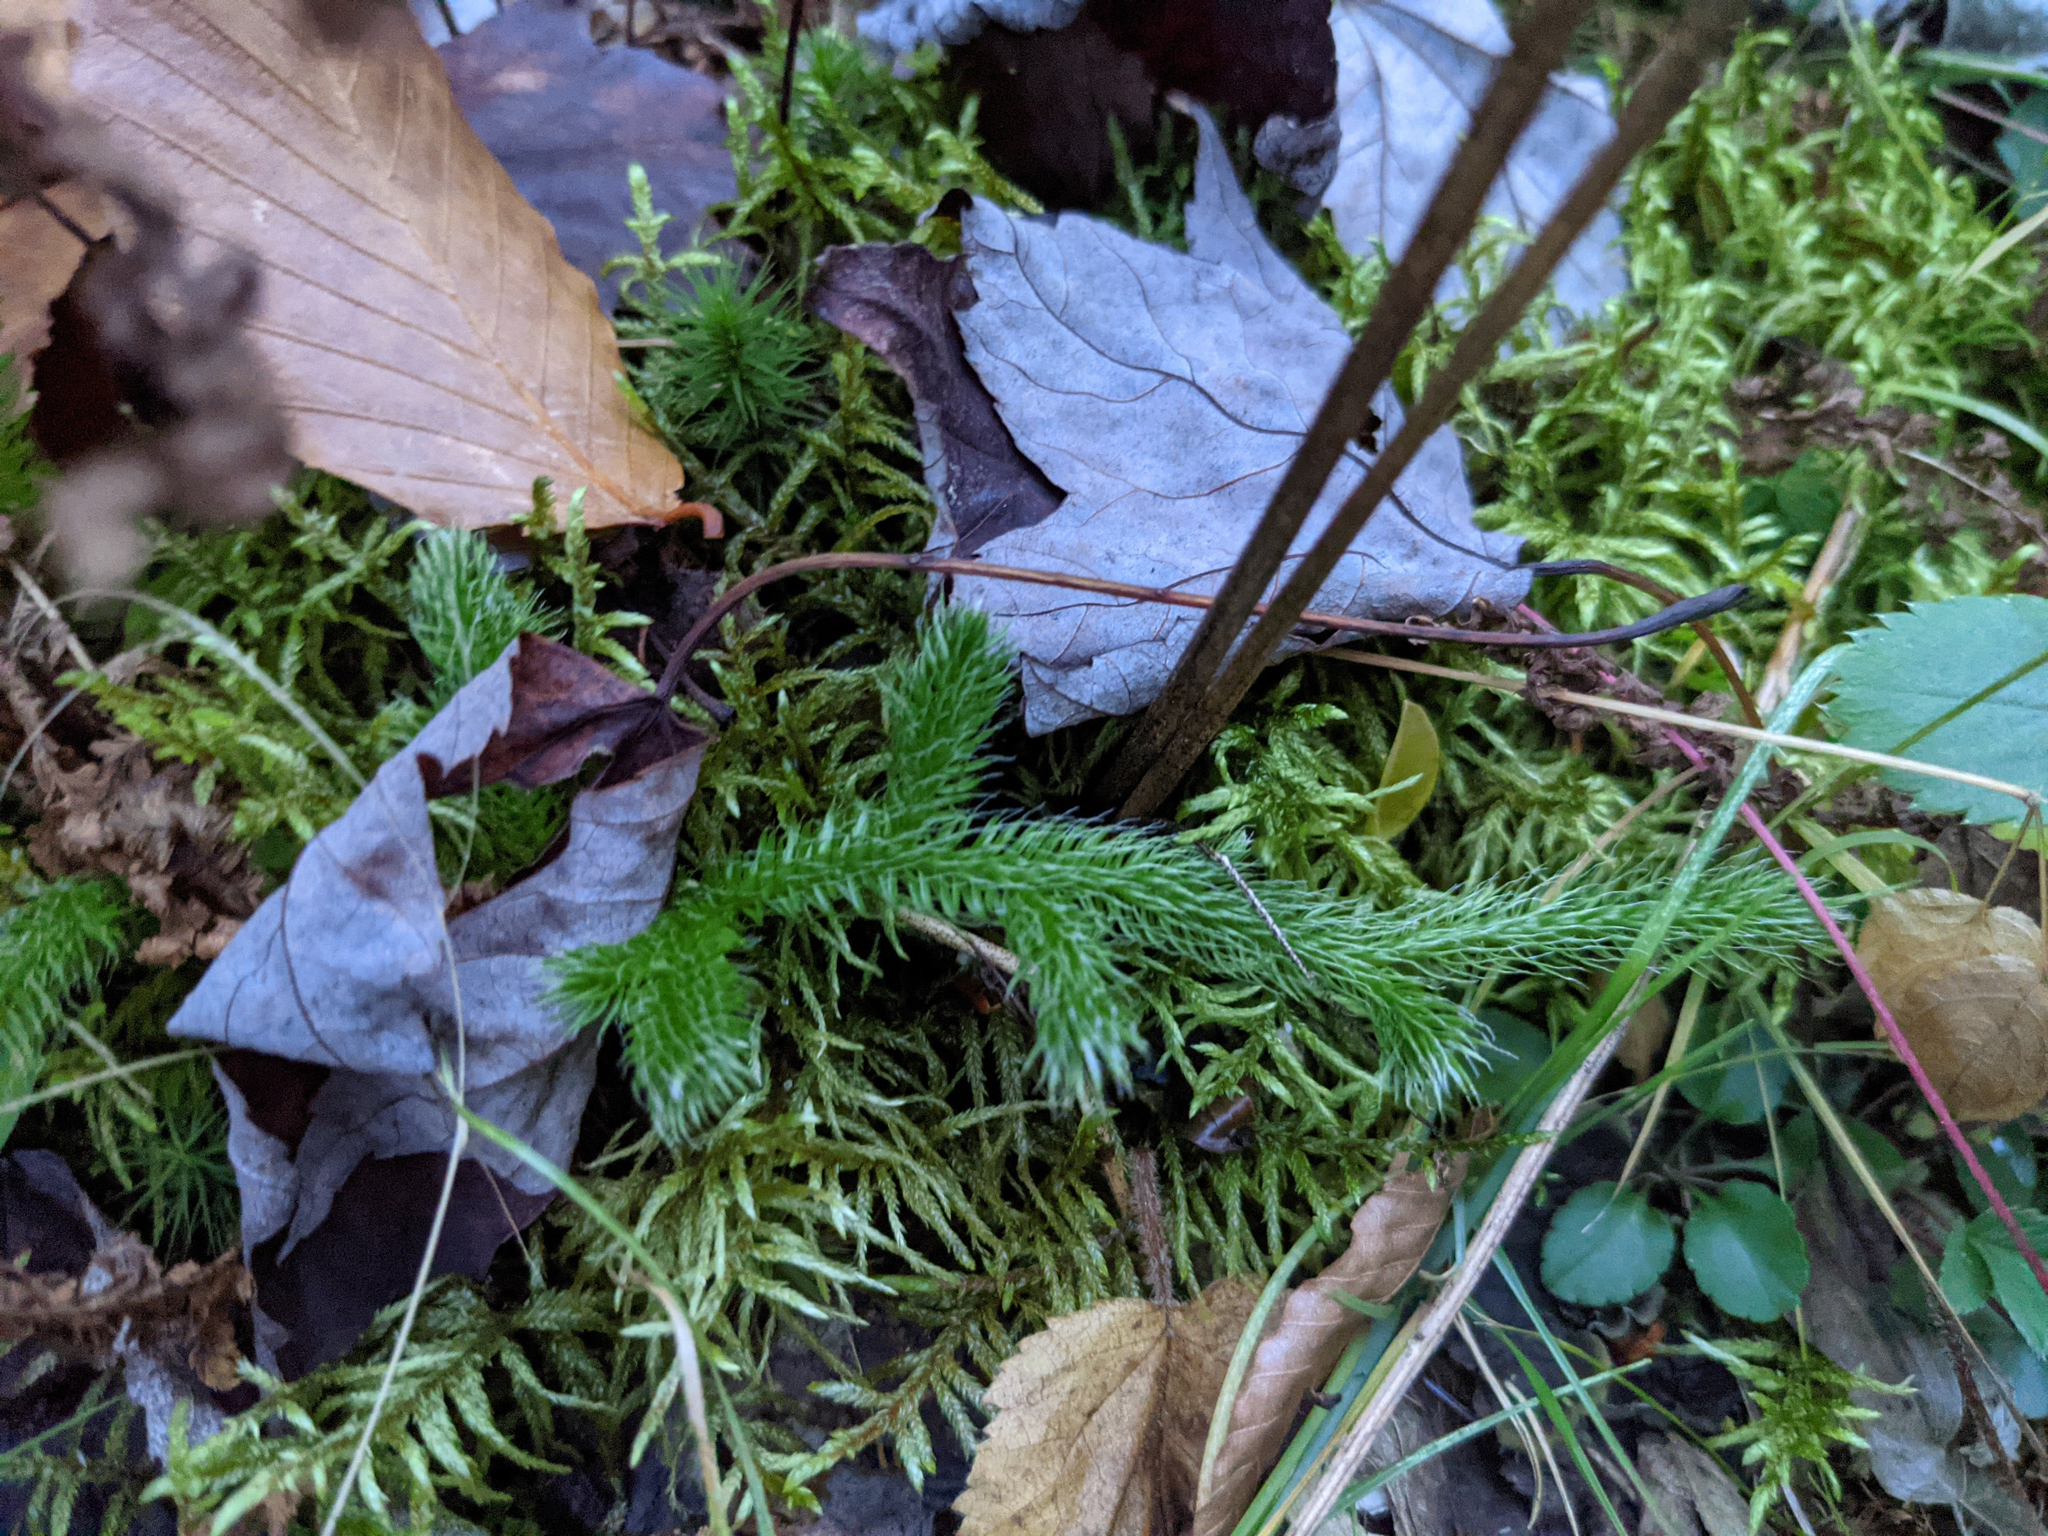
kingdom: Plantae
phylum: Tracheophyta
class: Lycopodiopsida
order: Lycopodiales
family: Lycopodiaceae
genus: Lycopodium
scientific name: Lycopodium clavatum
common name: Stag's-horn clubmoss
